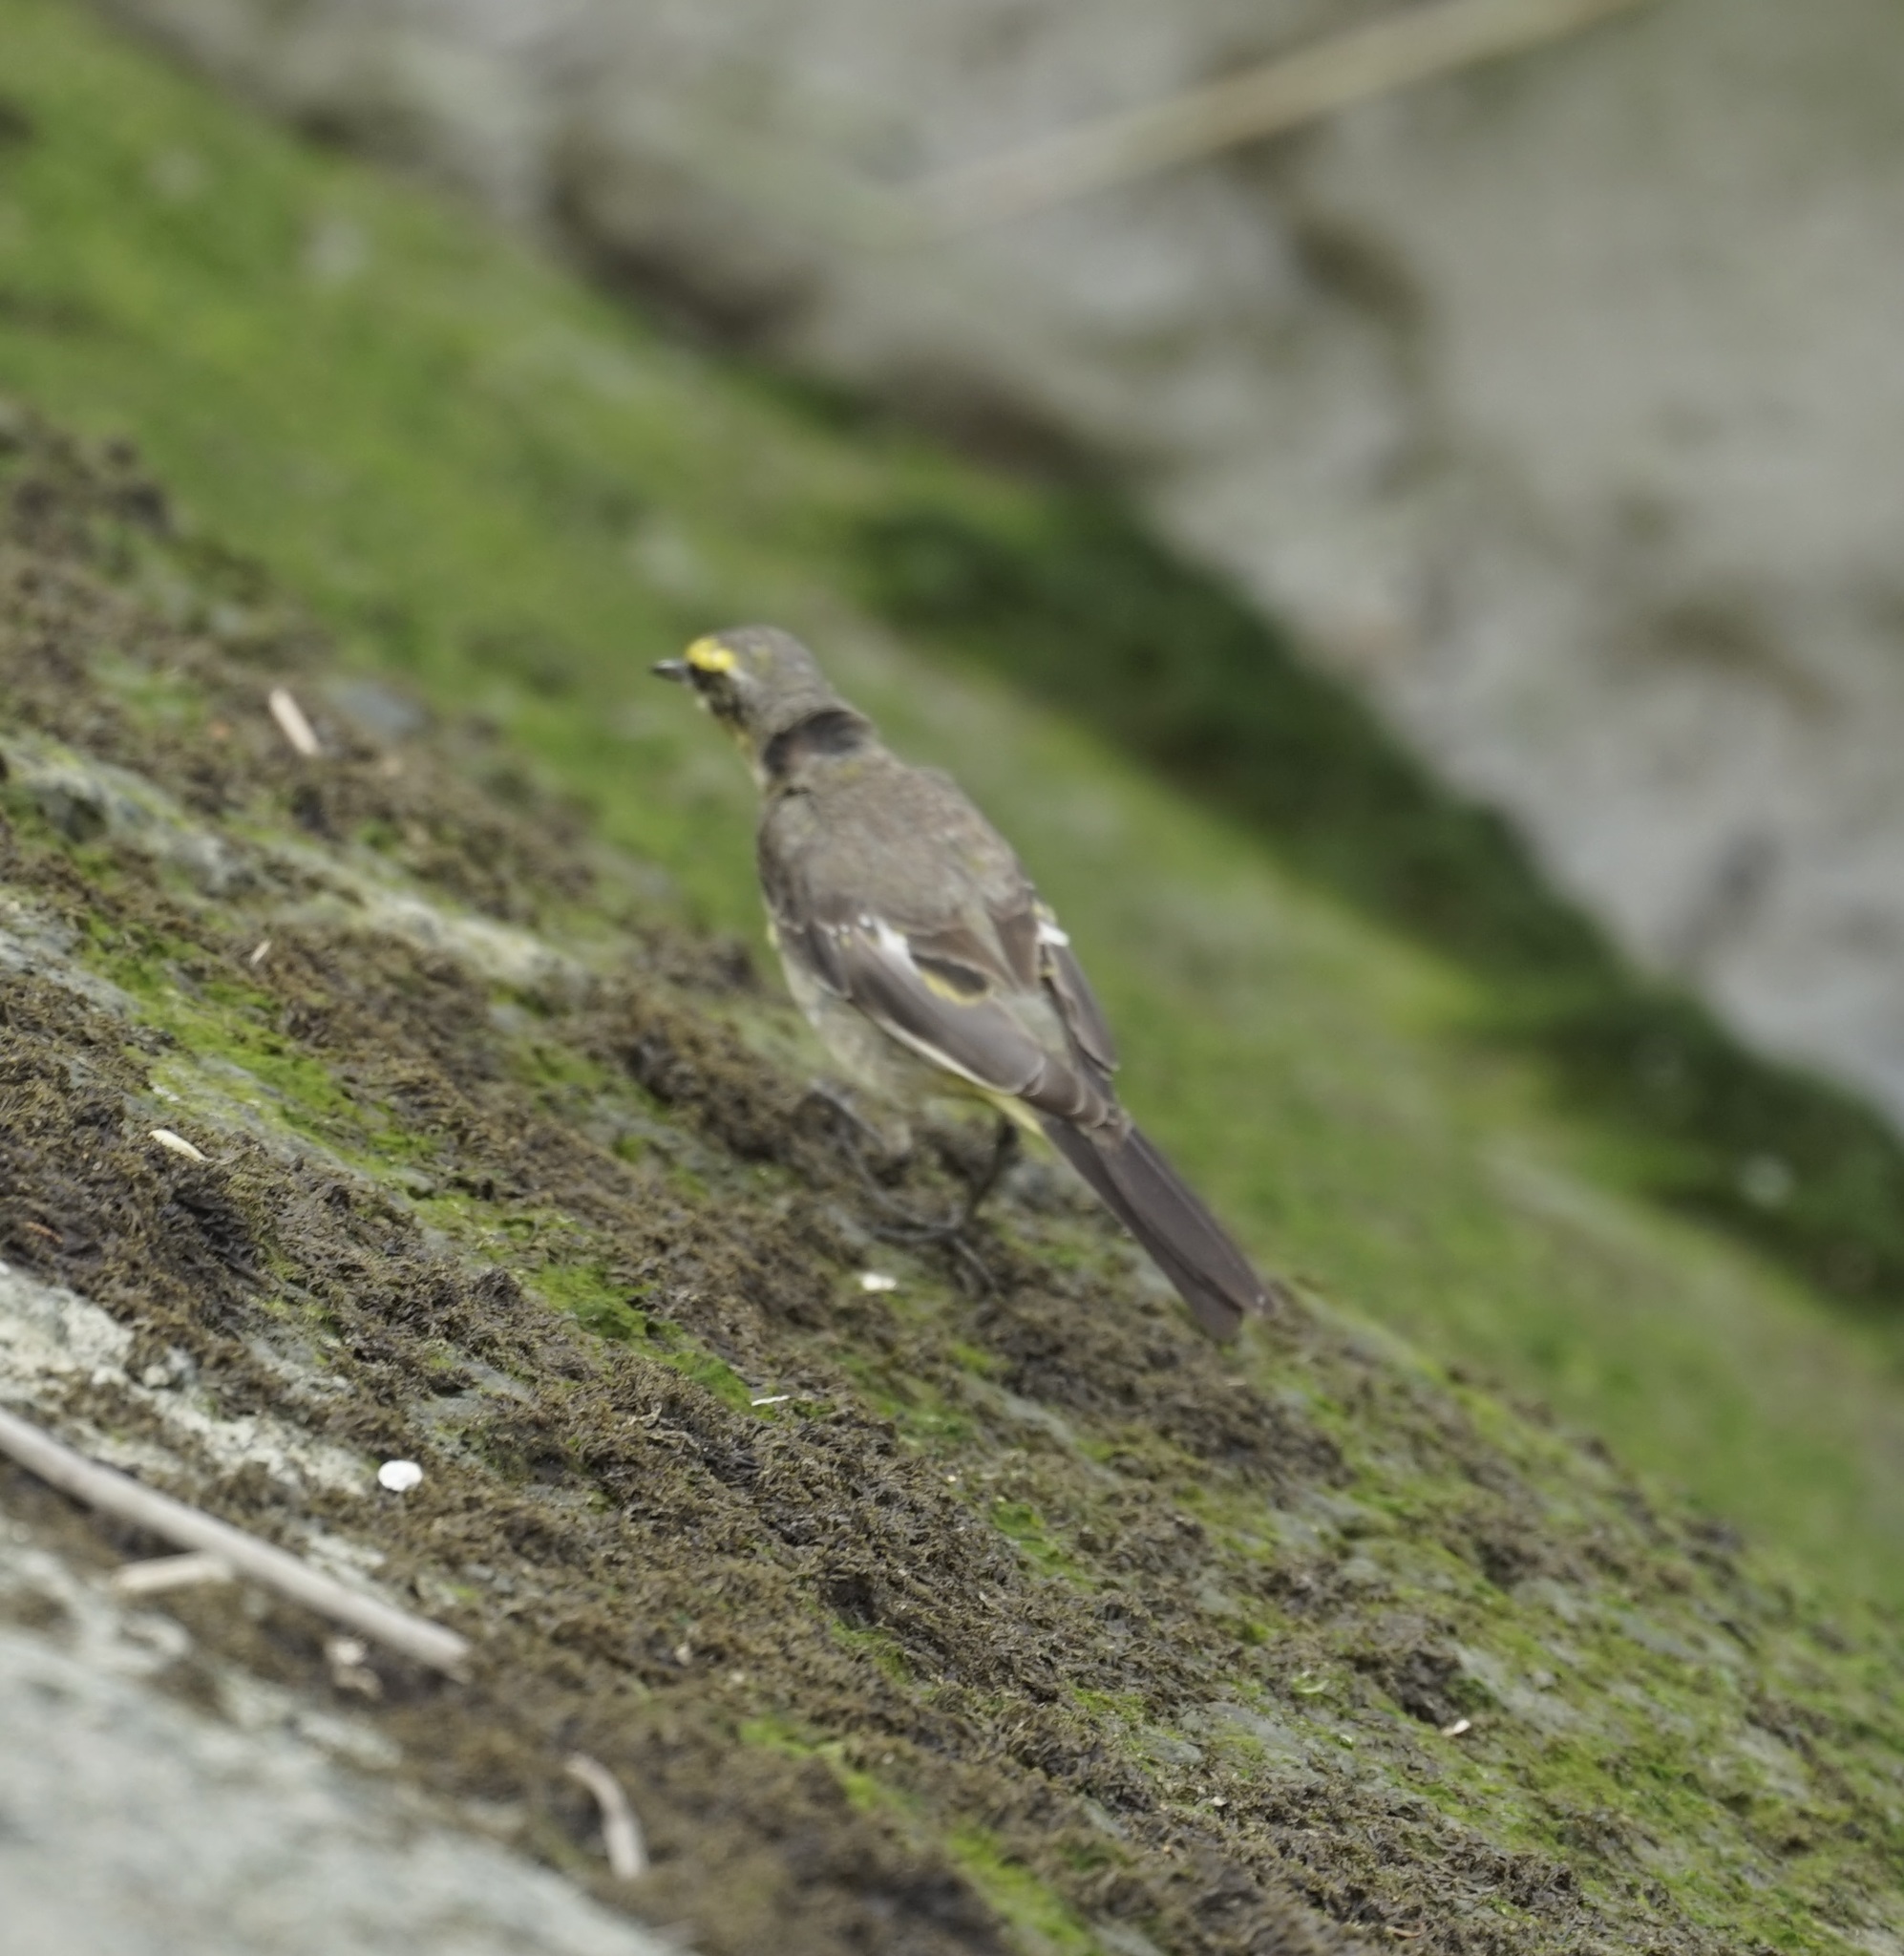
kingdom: Animalia
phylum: Chordata
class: Aves
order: Passeriformes
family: Motacillidae
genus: Motacilla
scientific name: Motacilla tschutschensis
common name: Eastern yellow wagtail
